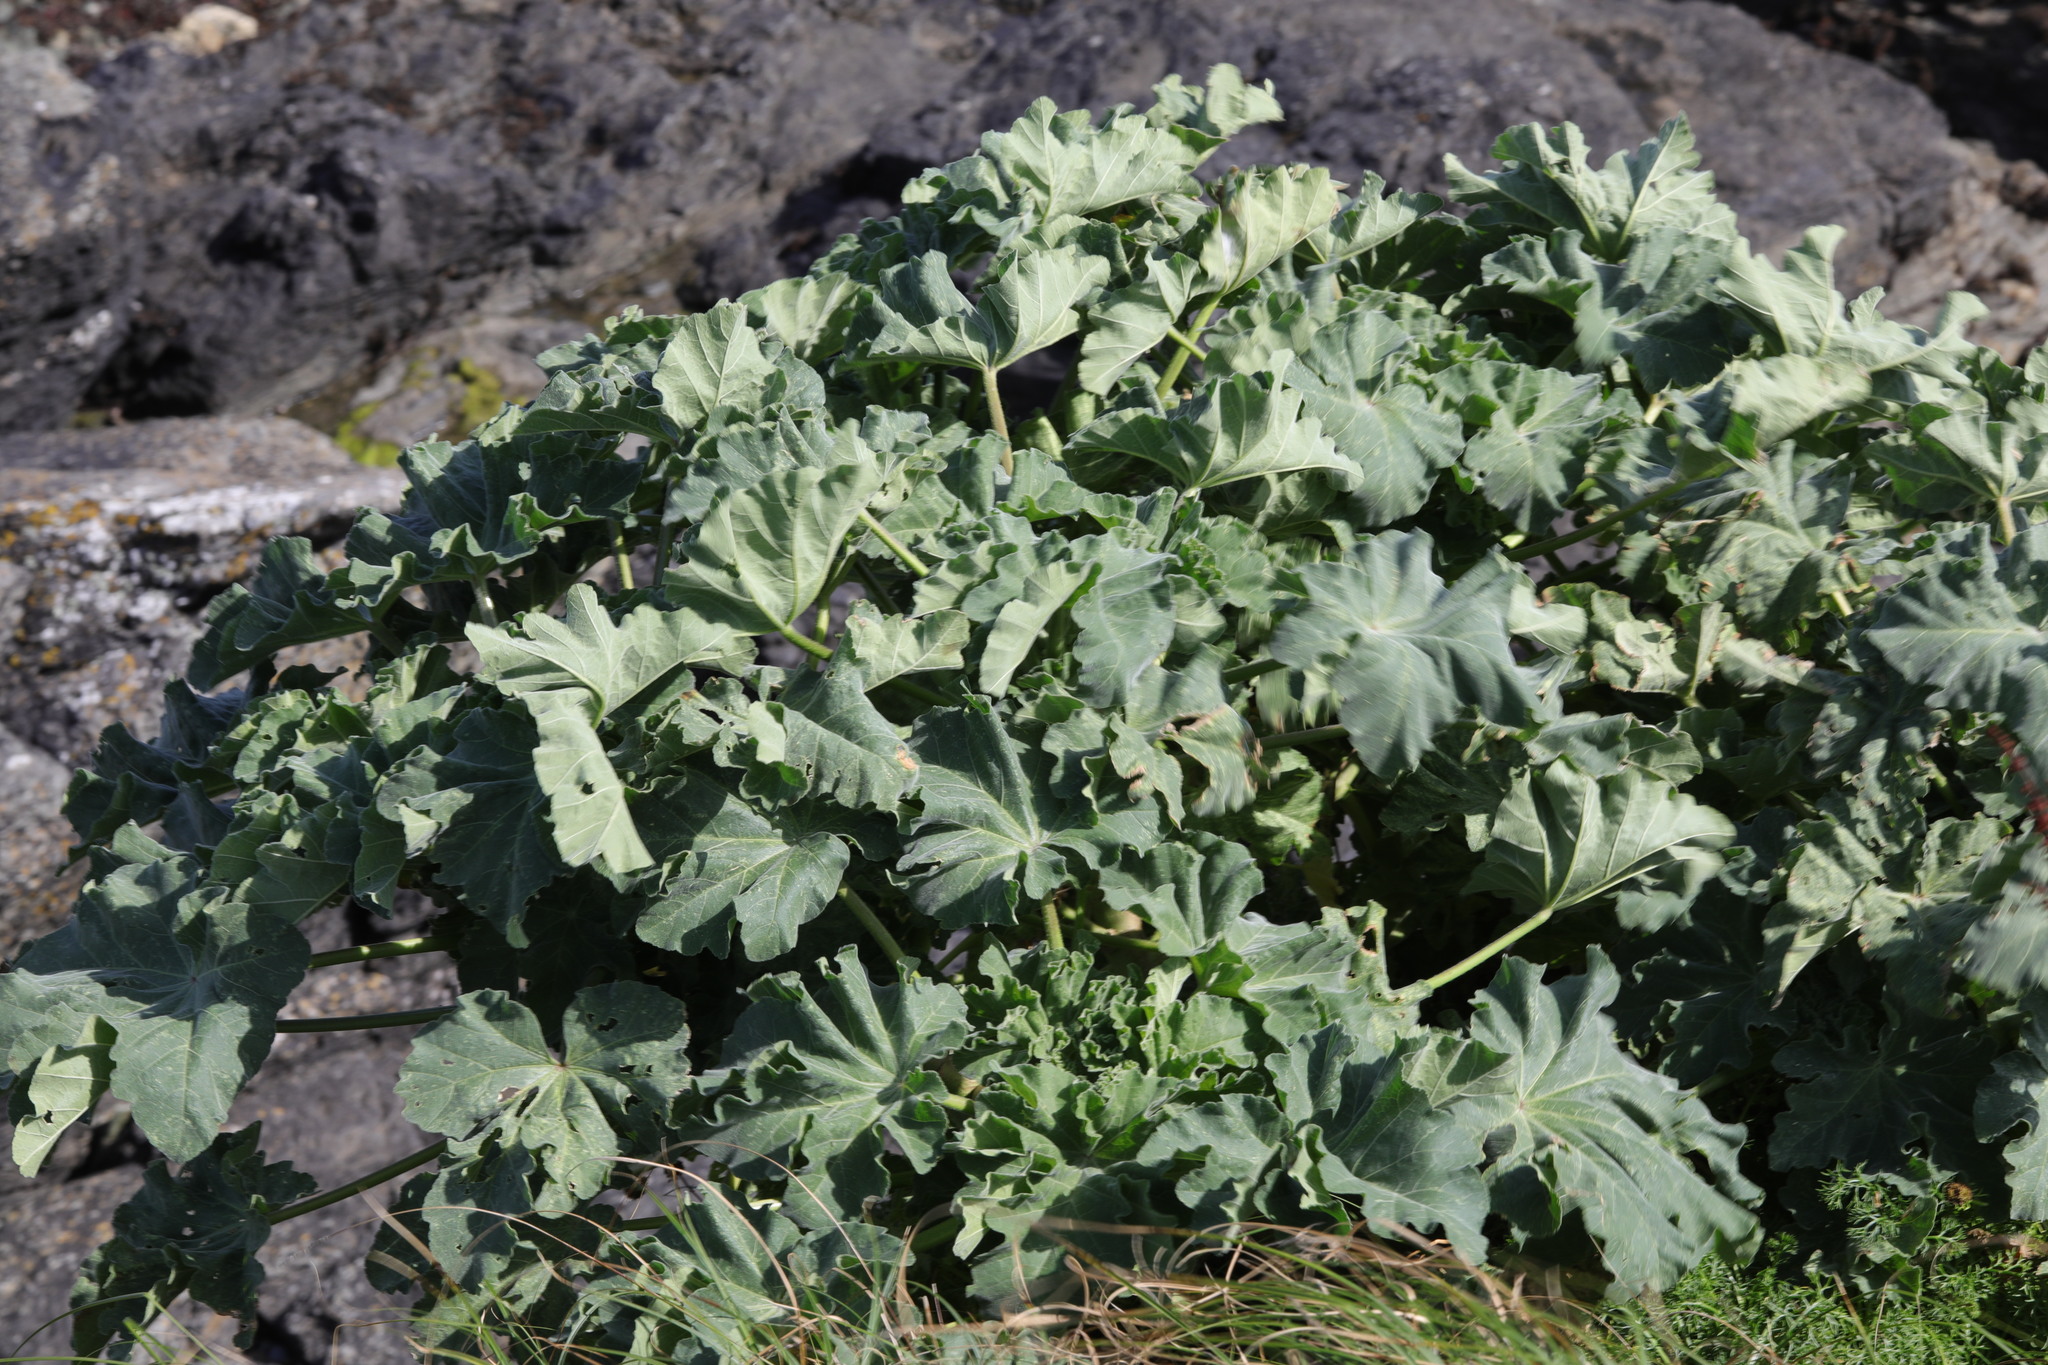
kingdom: Plantae
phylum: Tracheophyta
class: Magnoliopsida
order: Malvales
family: Malvaceae
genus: Malva
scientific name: Malva arborea
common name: Tree mallow
